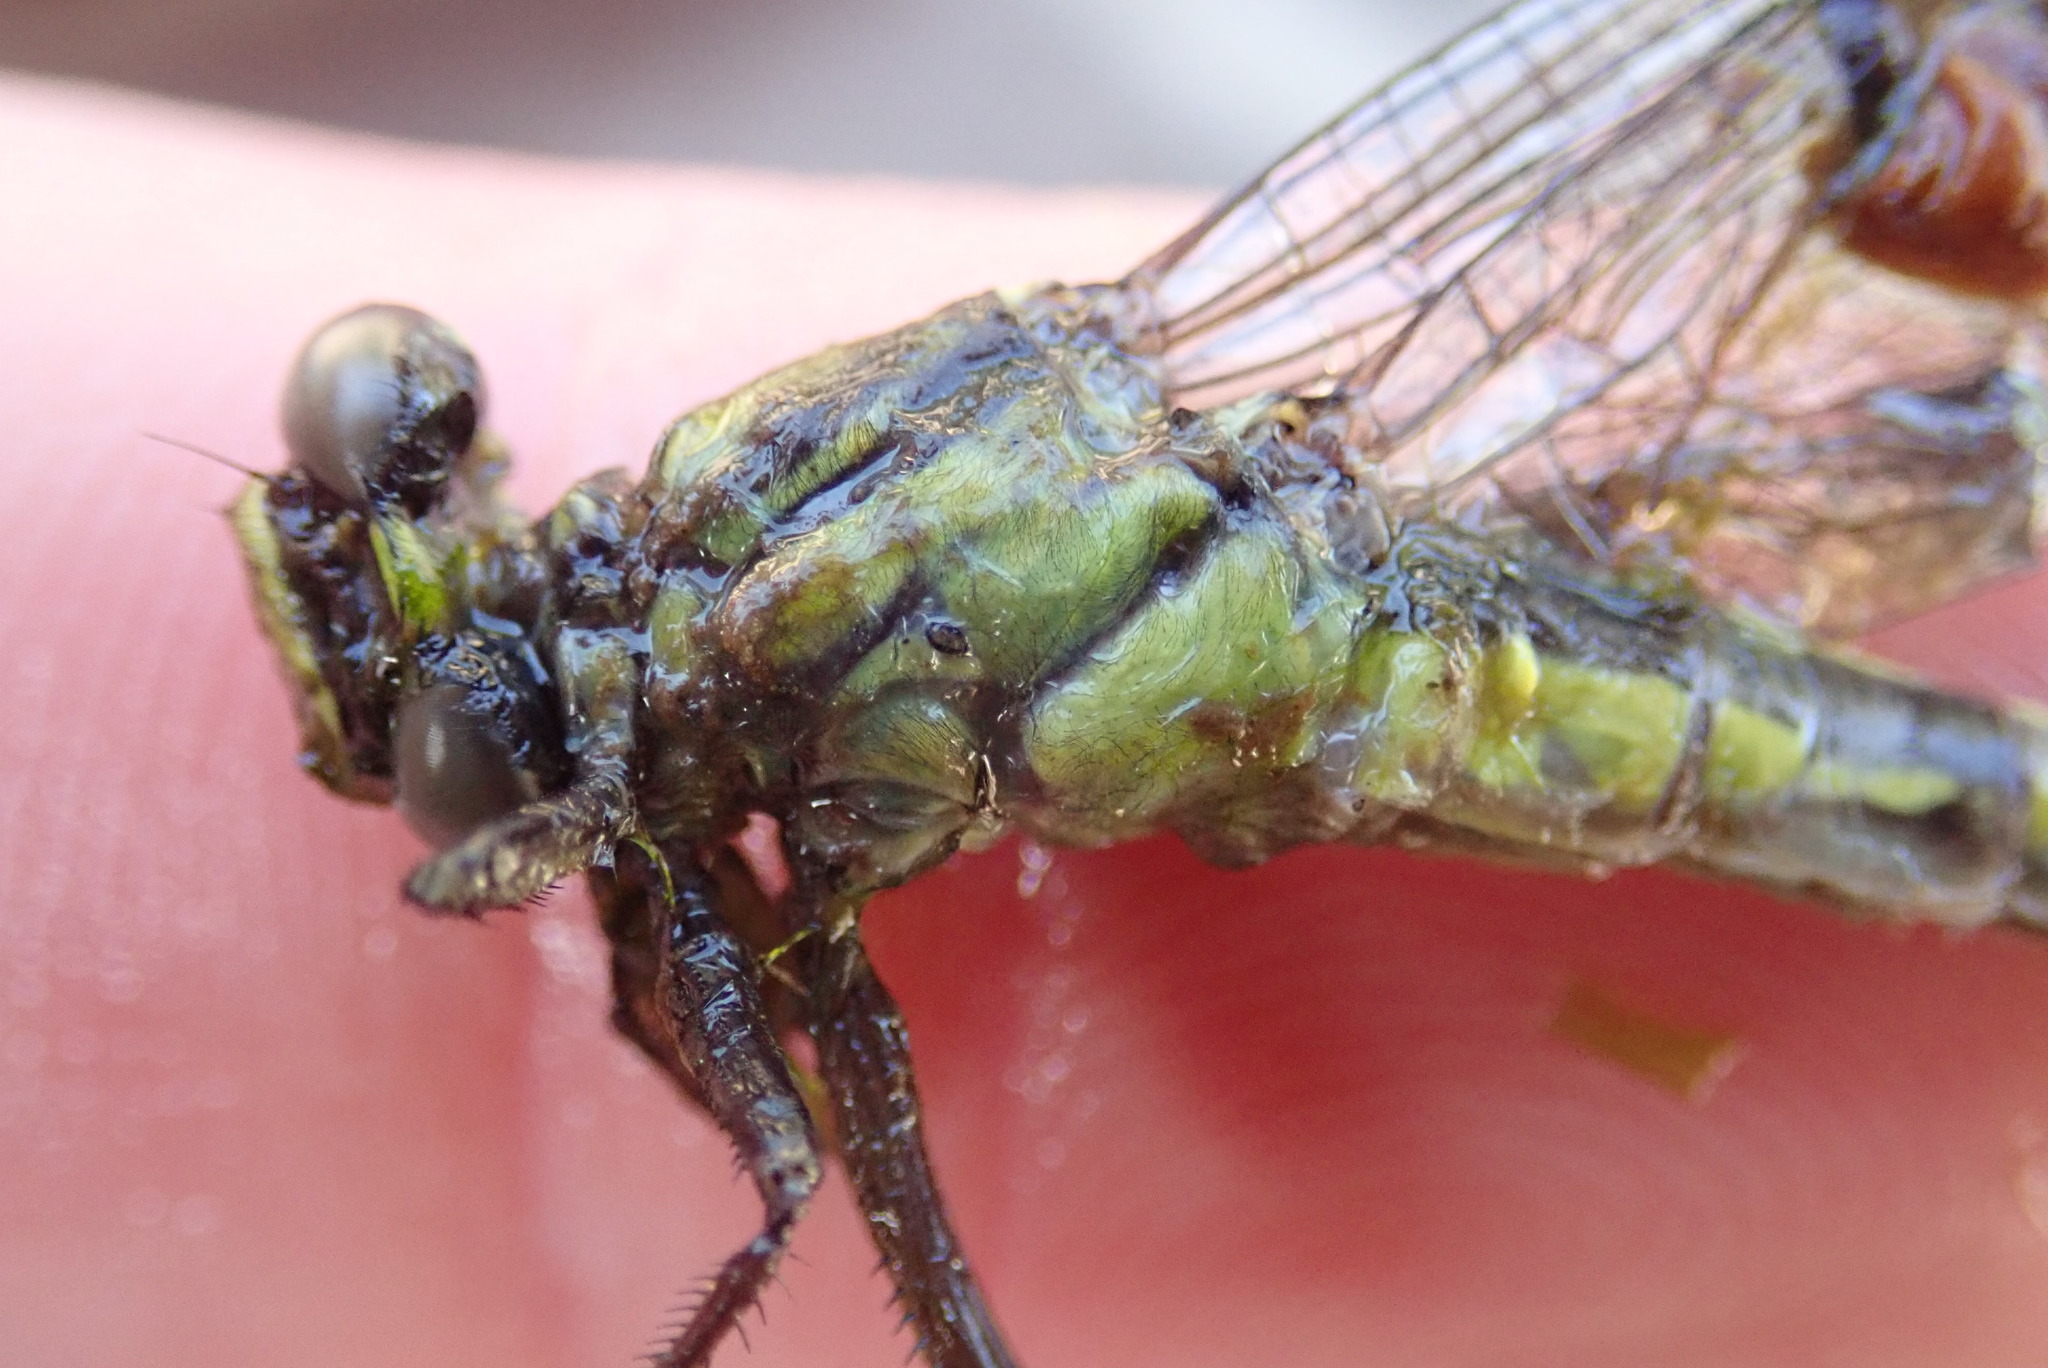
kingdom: Animalia
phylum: Arthropoda
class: Insecta
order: Odonata
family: Gomphidae
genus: Hylogomphus
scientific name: Hylogomphus adelphus
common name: Mustached clubtail
